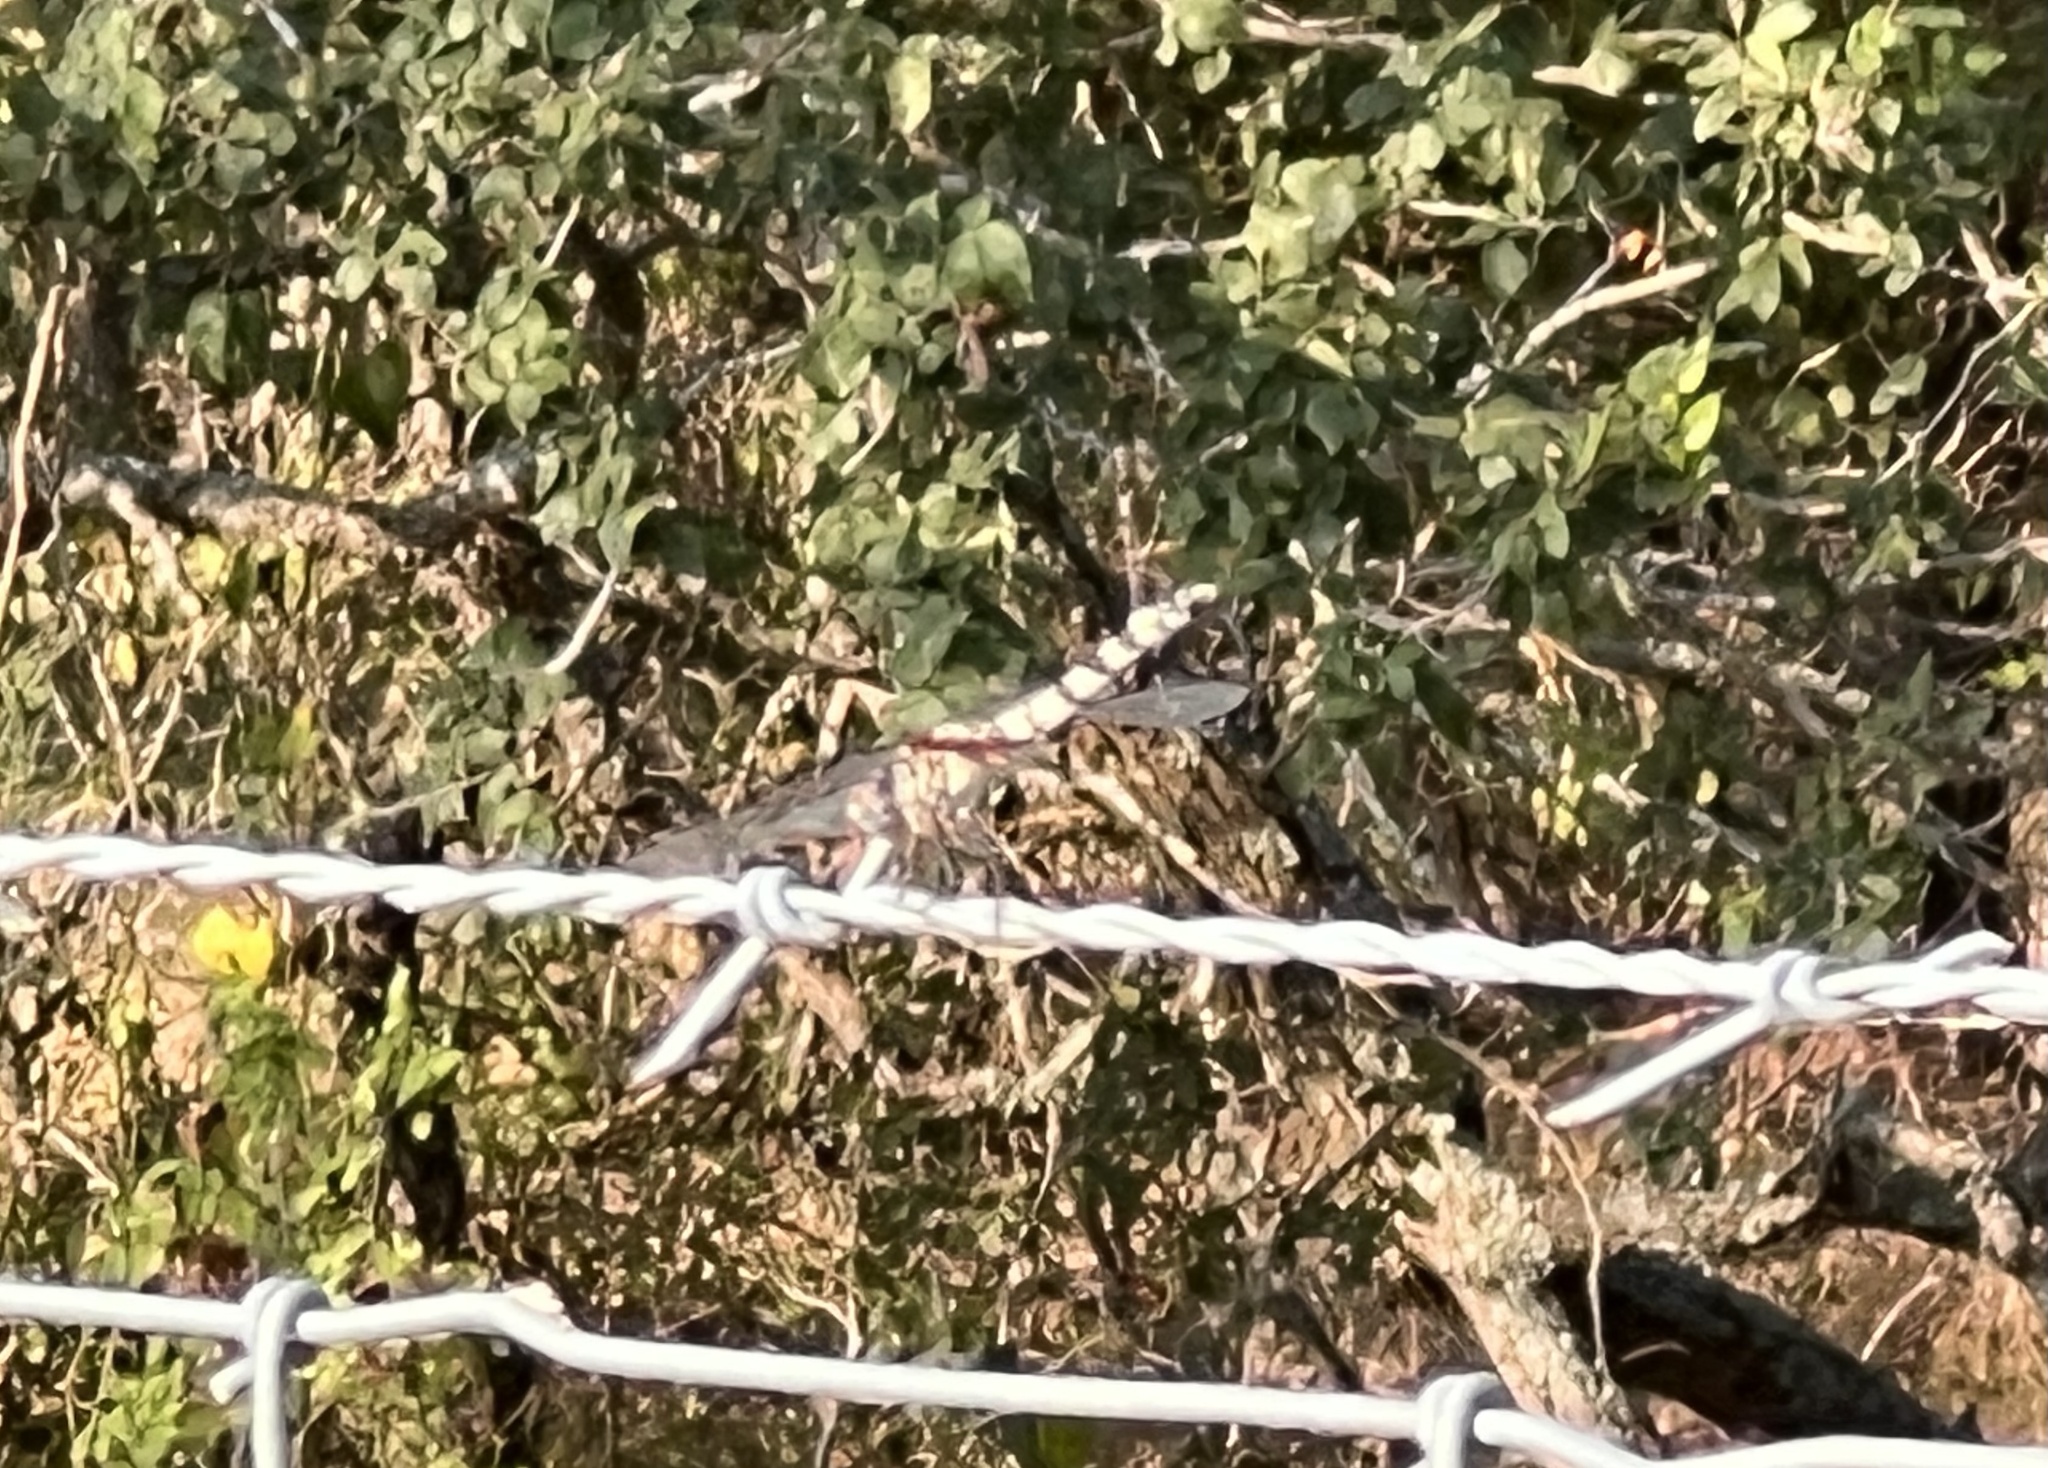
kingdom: Animalia
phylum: Arthropoda
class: Insecta
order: Odonata
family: Libellulidae
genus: Dythemis
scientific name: Dythemis fugax
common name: Checkered setwing
